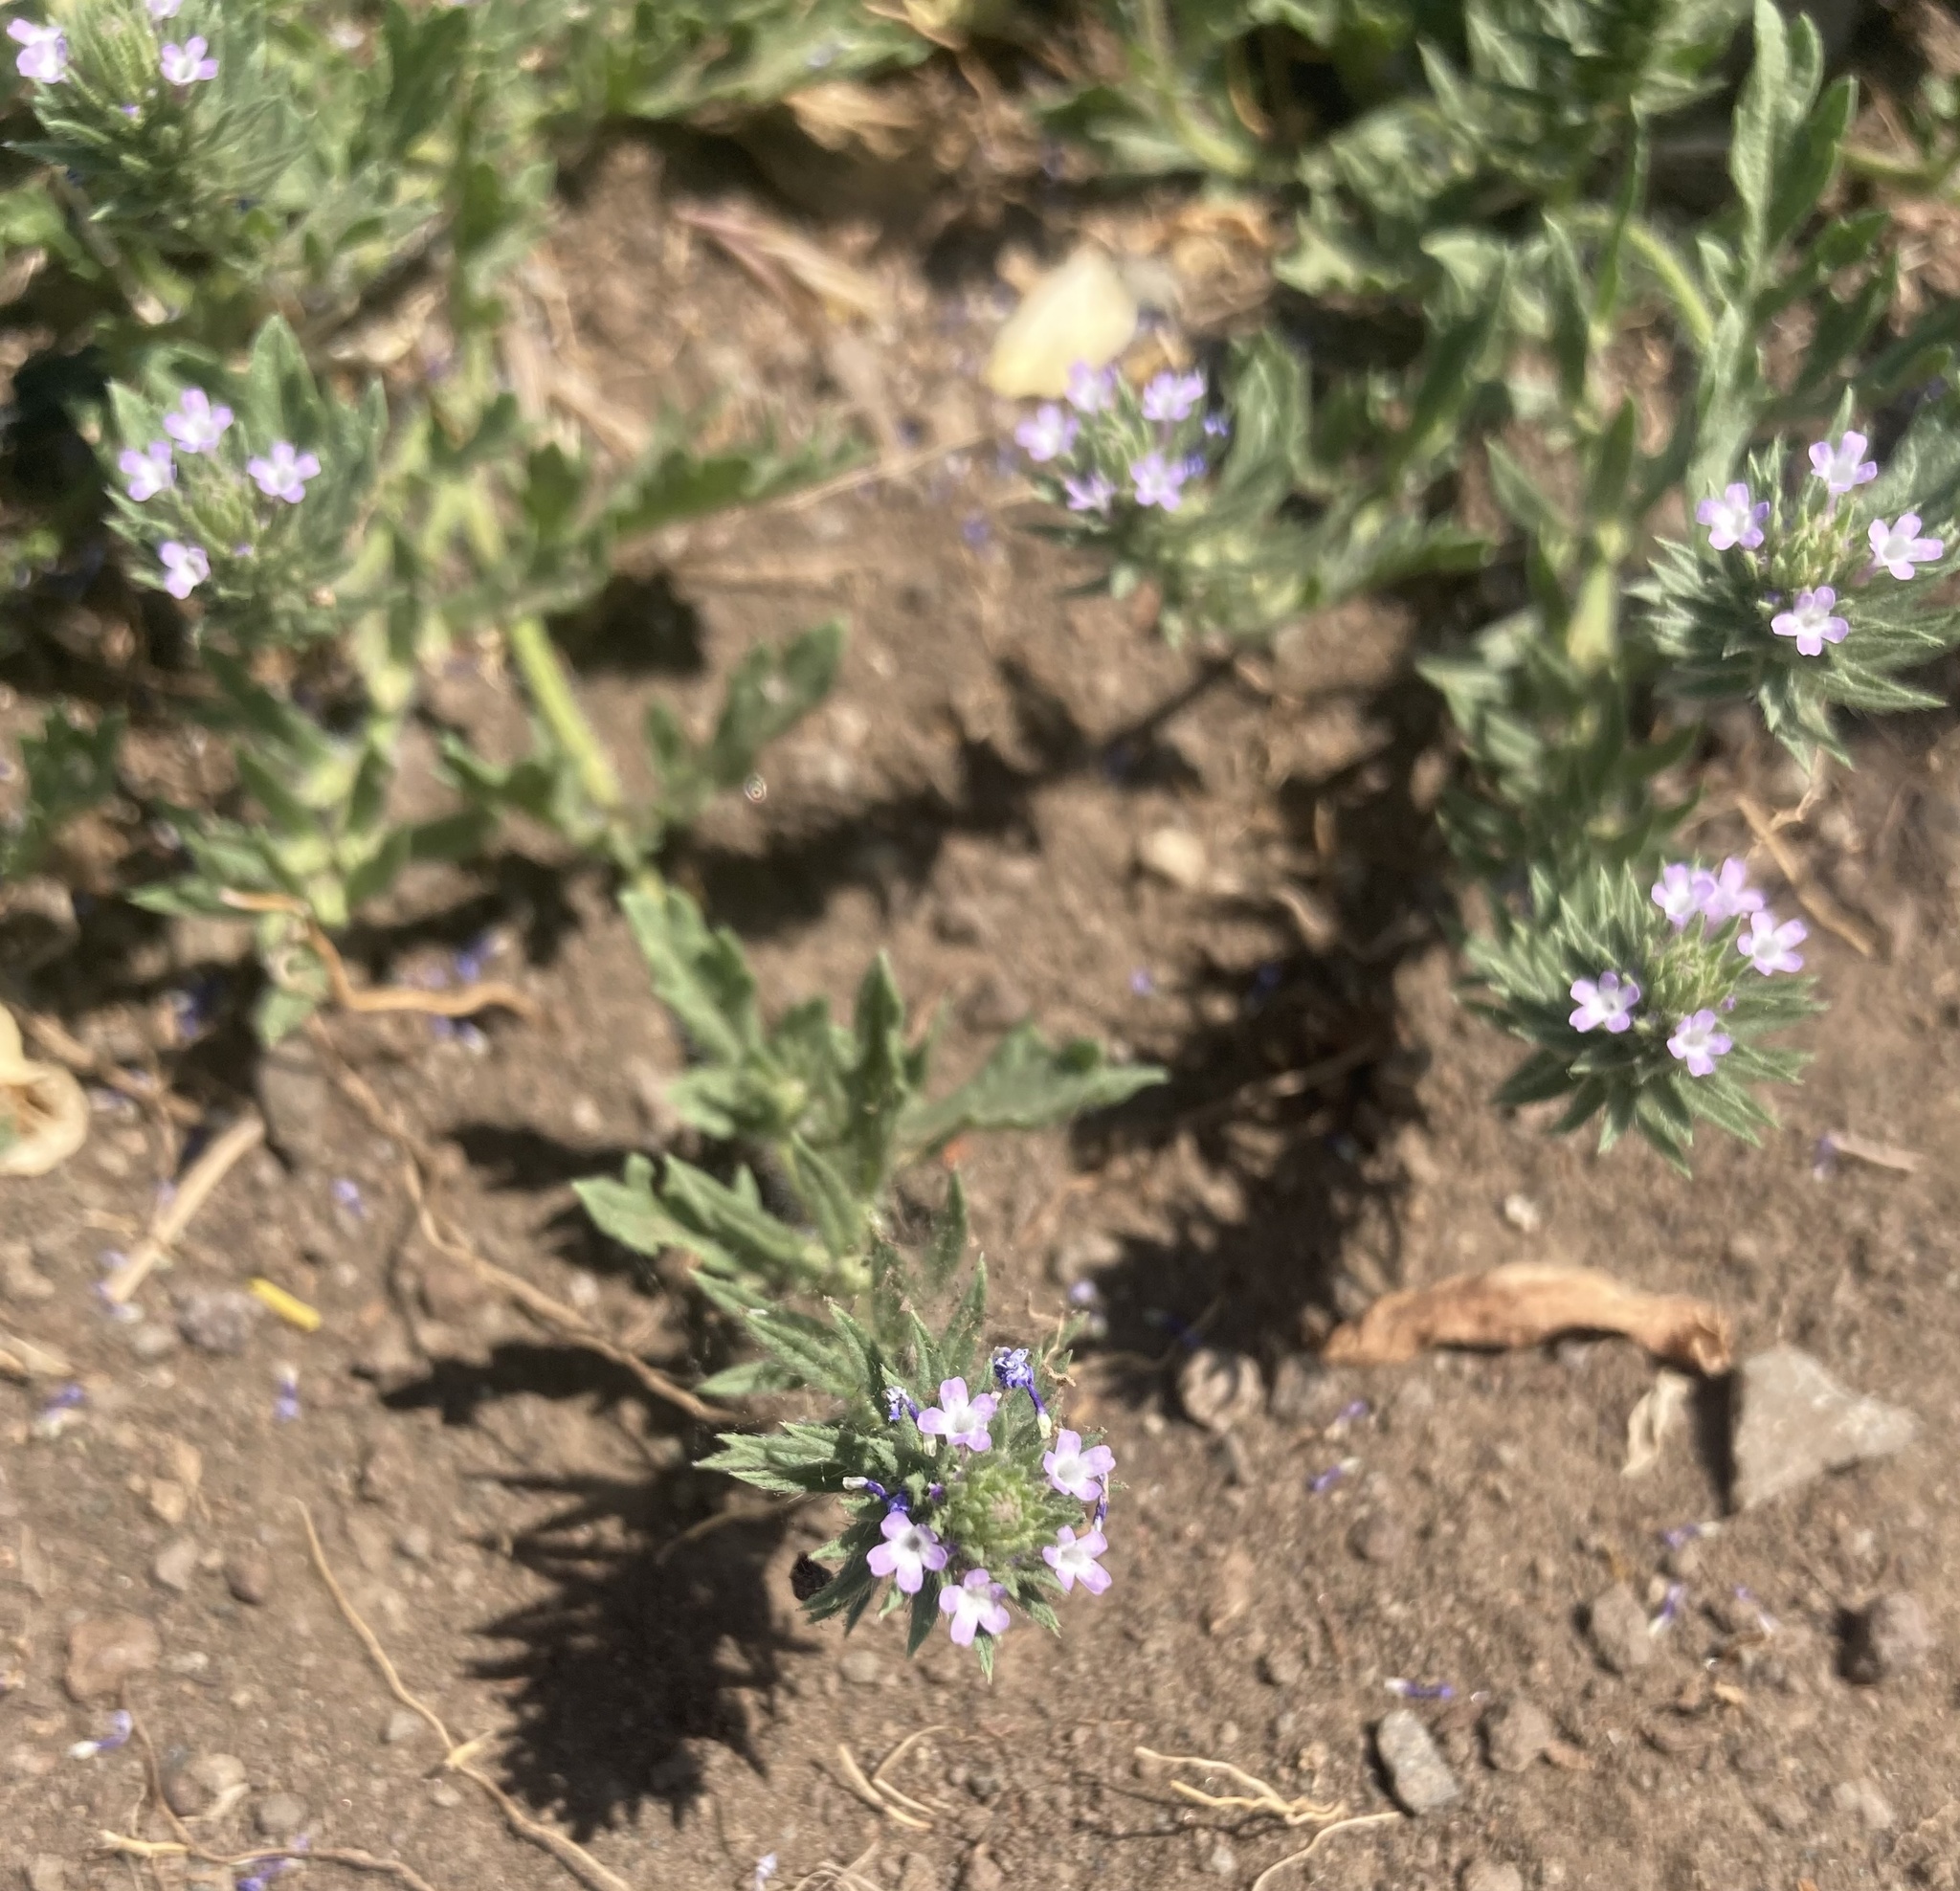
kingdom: Plantae
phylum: Tracheophyta
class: Magnoliopsida
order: Lamiales
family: Verbenaceae
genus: Verbena
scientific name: Verbena bracteata
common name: Bracted vervain
